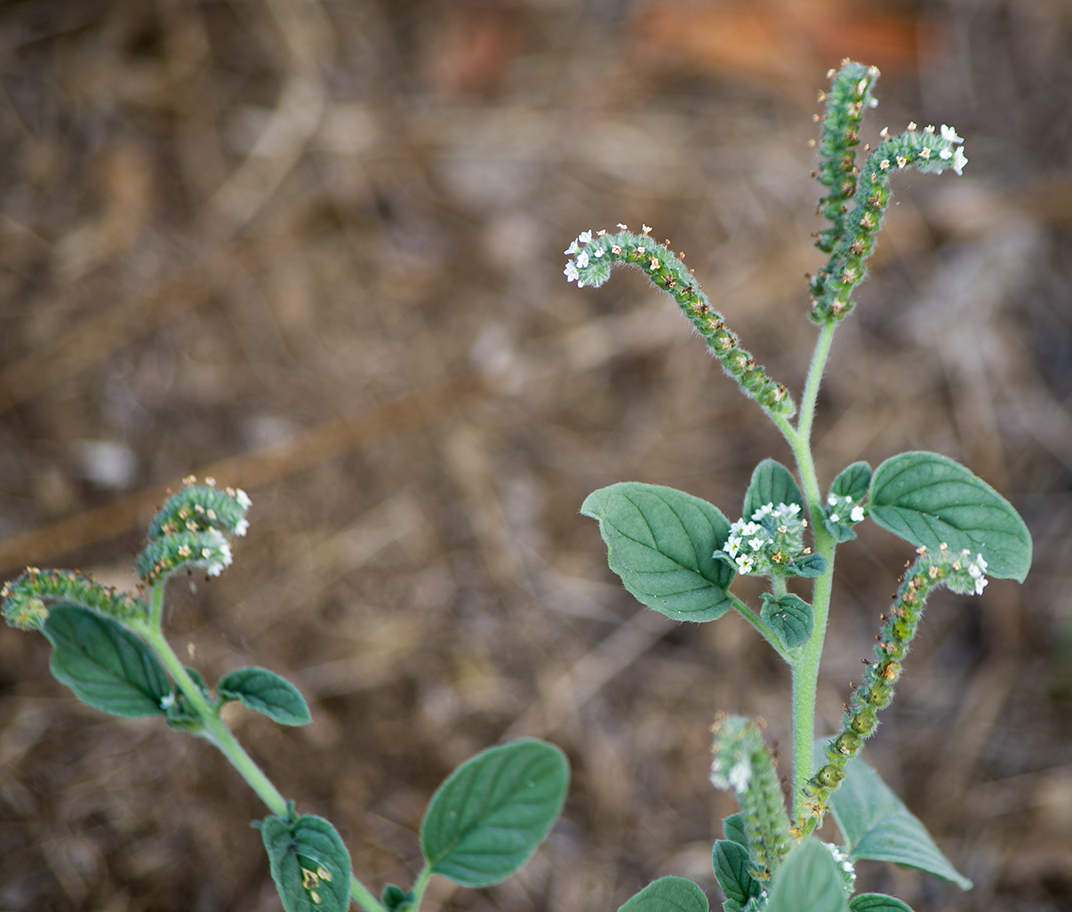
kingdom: Plantae
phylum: Tracheophyta
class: Magnoliopsida
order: Boraginales
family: Heliotropiaceae
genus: Heliotropium
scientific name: Heliotropium europaeum
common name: European heliotrope
